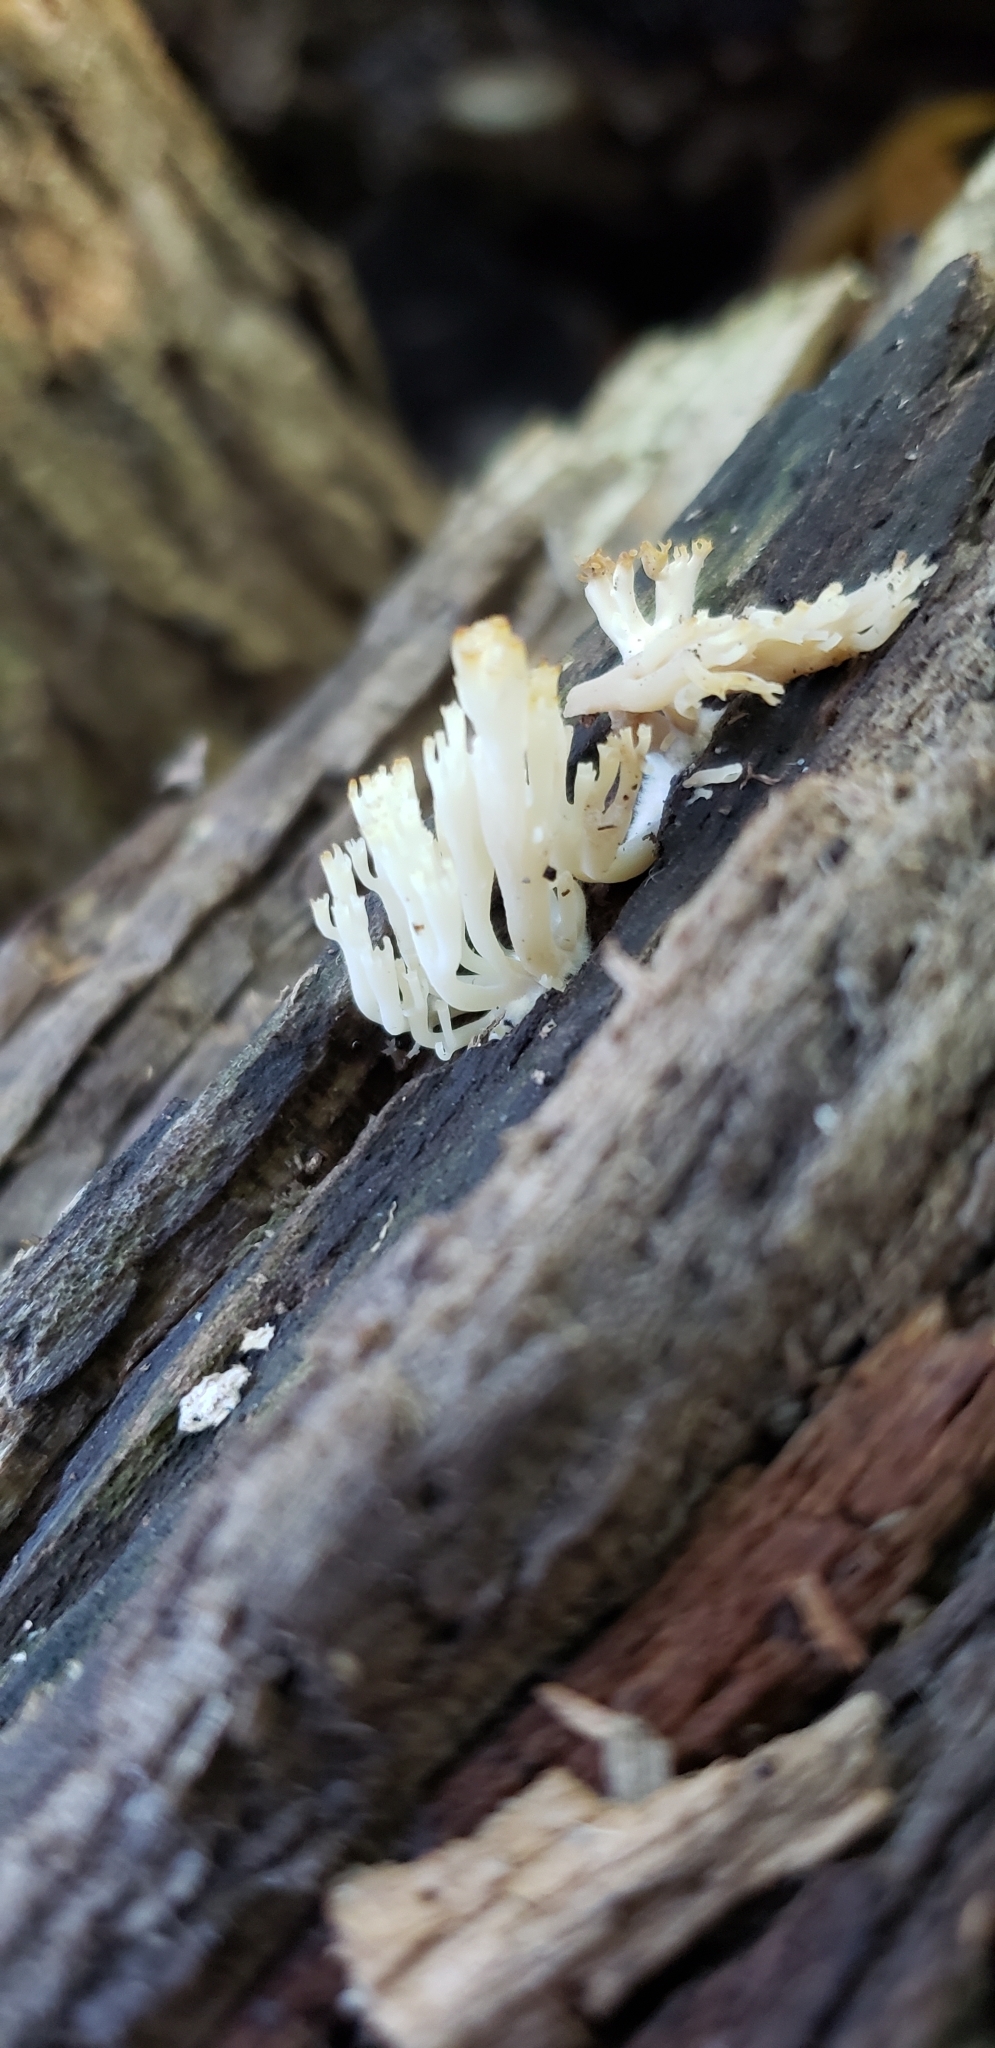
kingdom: Fungi
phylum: Basidiomycota
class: Agaricomycetes
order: Russulales
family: Auriscalpiaceae
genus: Artomyces
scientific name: Artomyces pyxidatus
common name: Crown-tipped coral fungus
